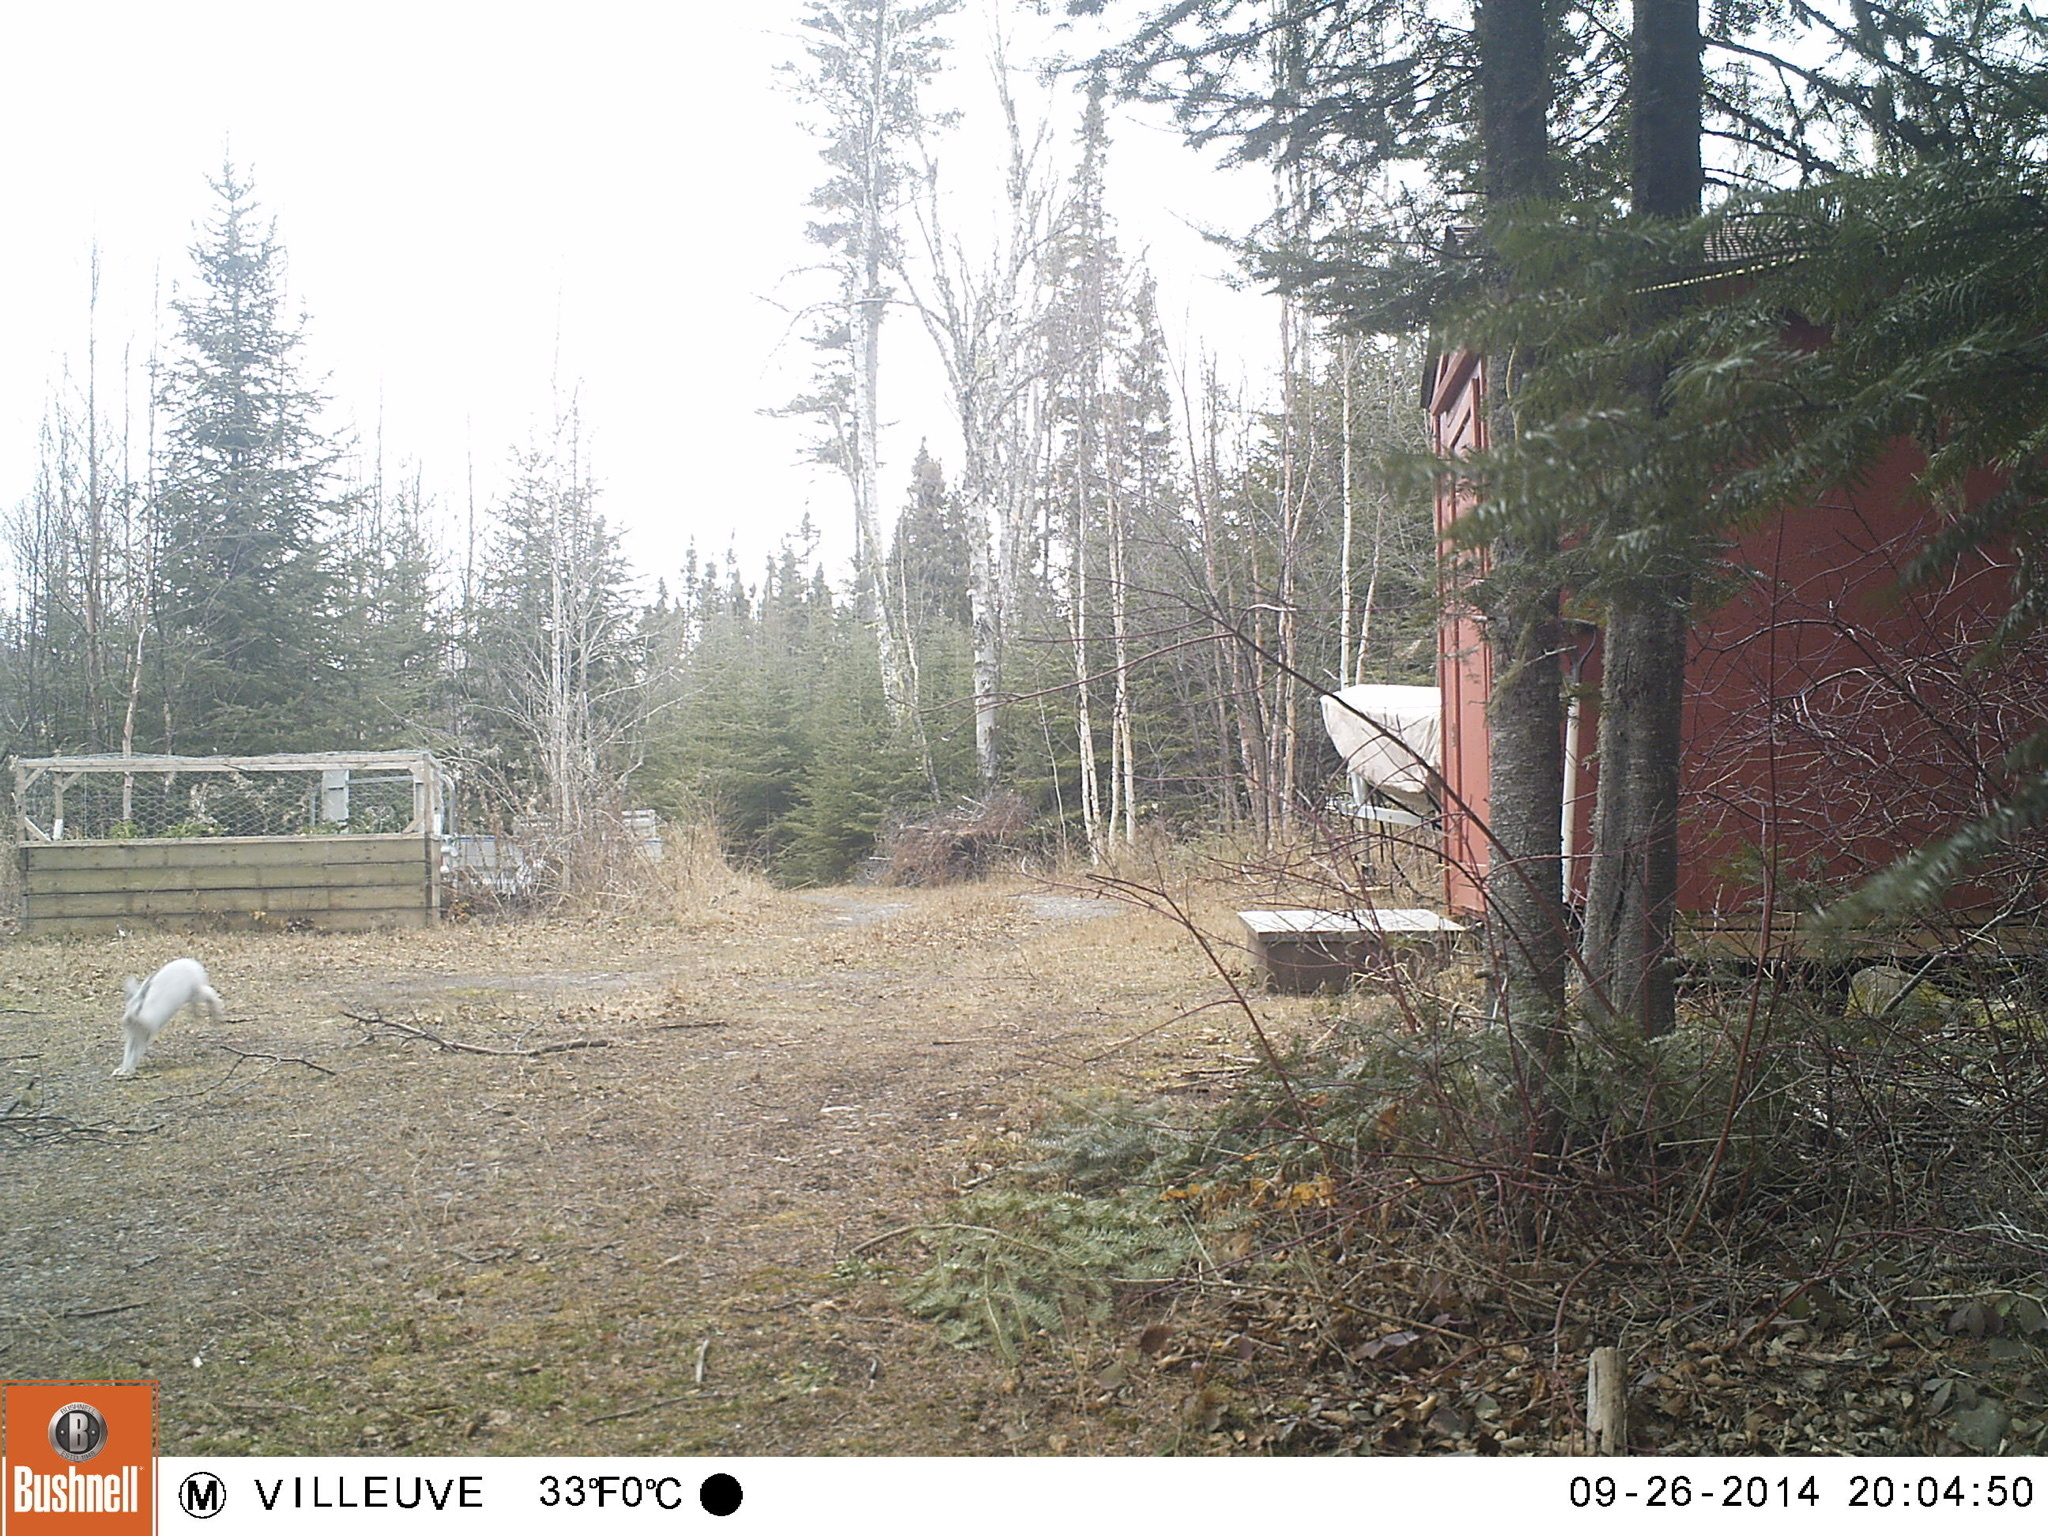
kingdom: Animalia
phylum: Chordata
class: Mammalia
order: Lagomorpha
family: Leporidae
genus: Lepus
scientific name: Lepus americanus
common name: Snowshoe hare
